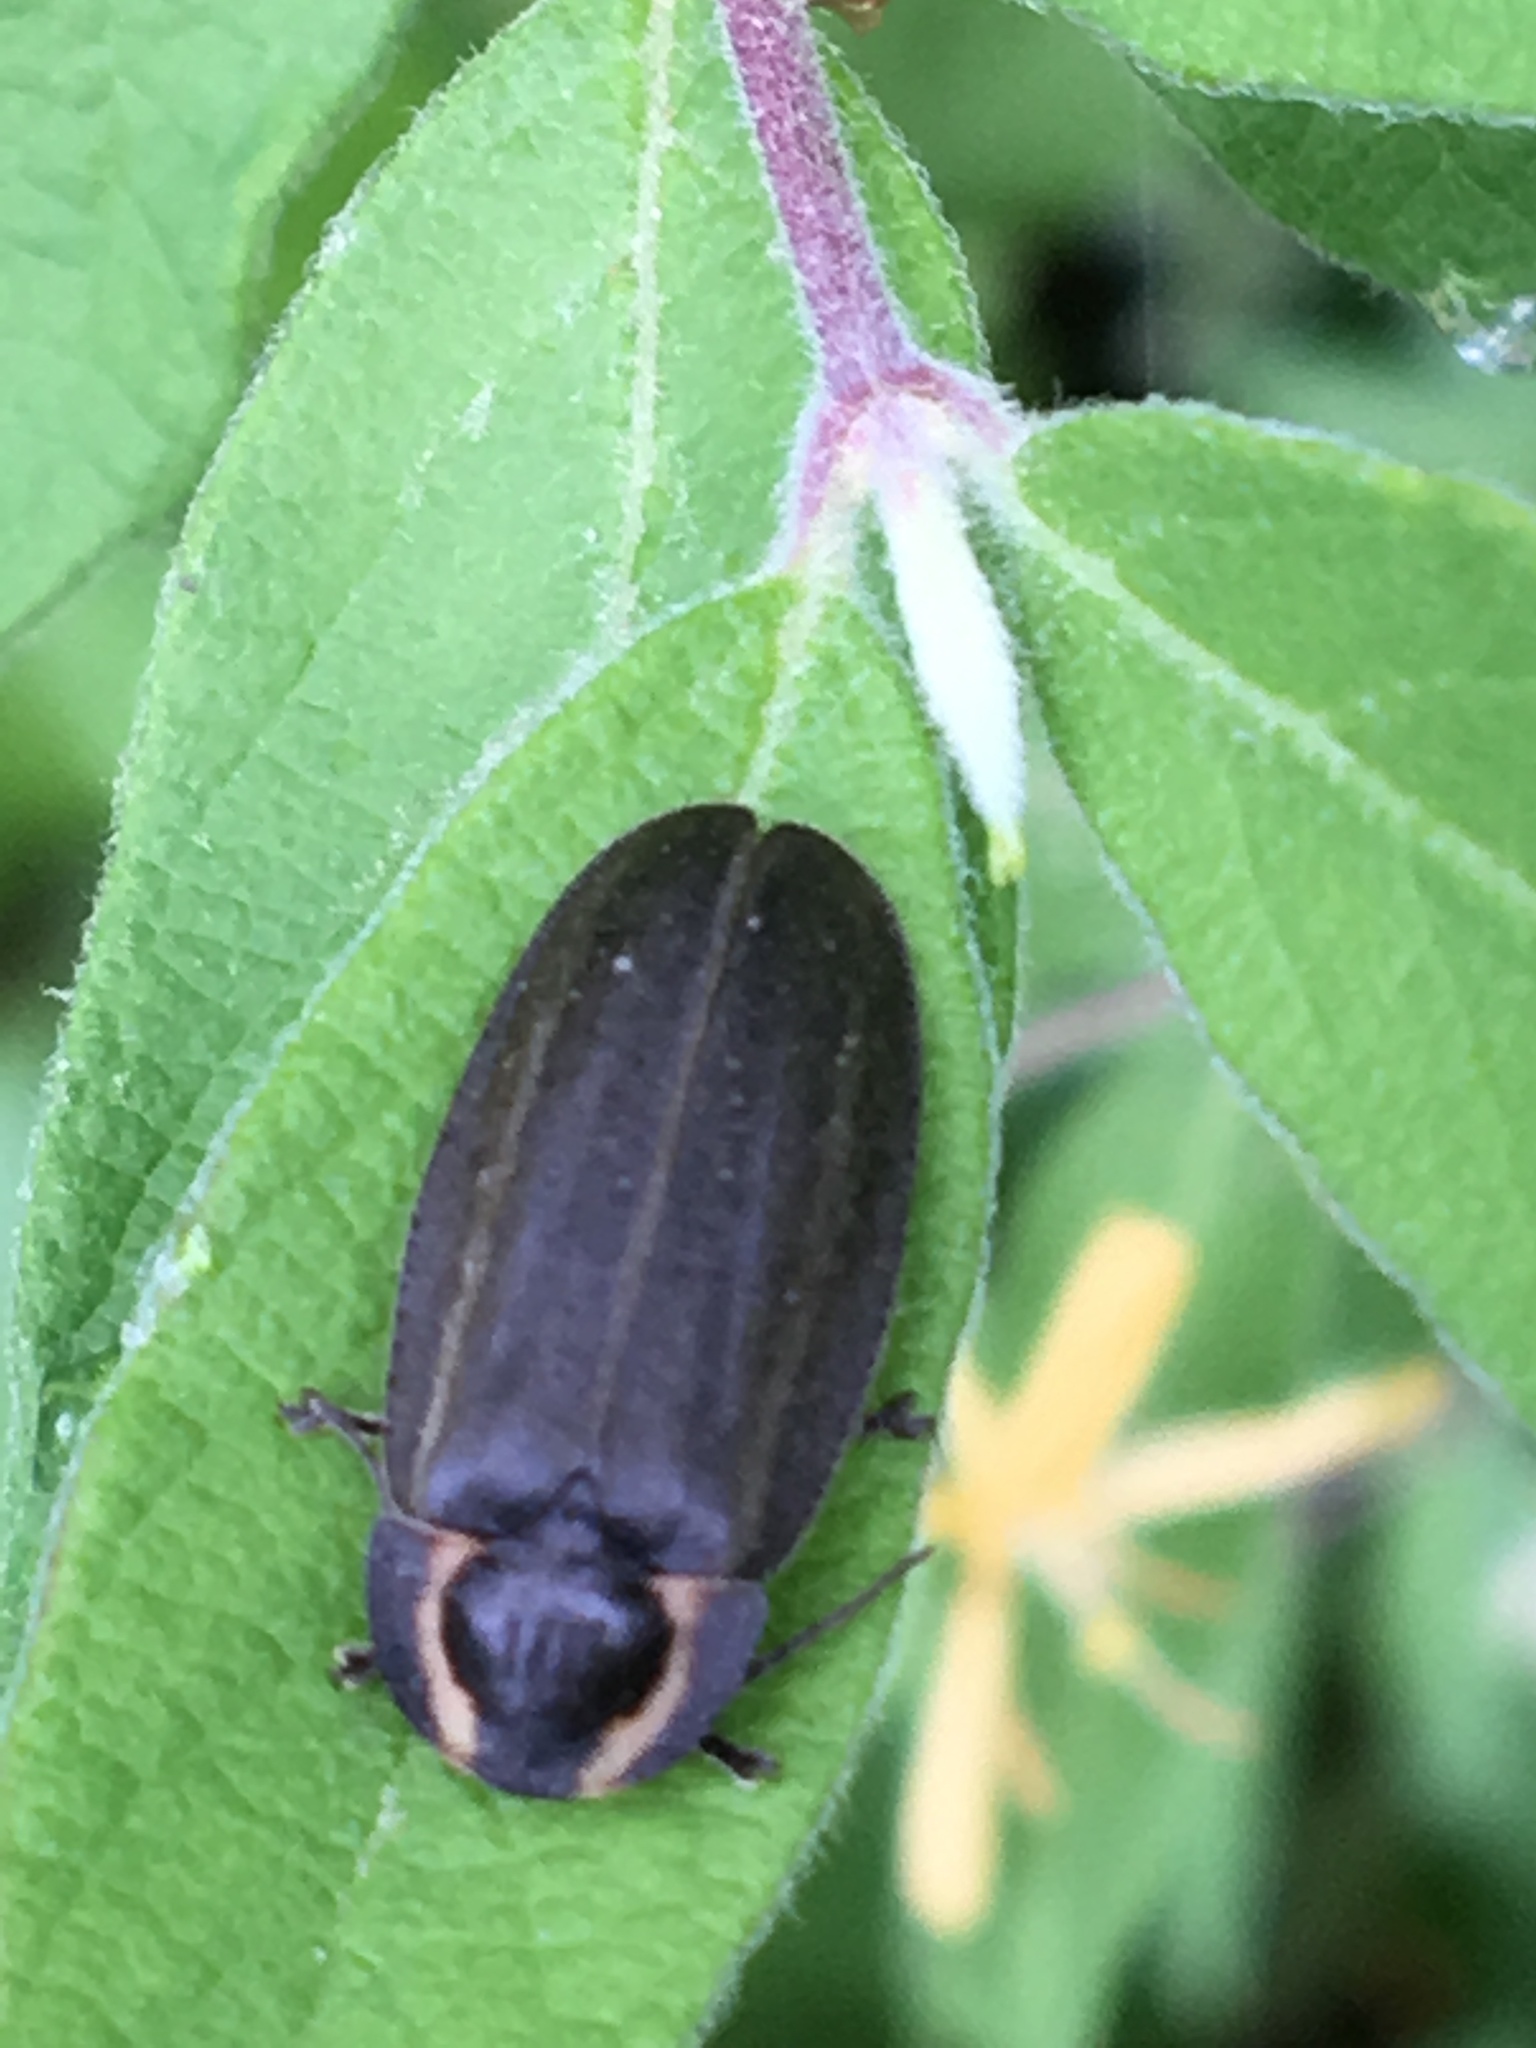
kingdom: Animalia
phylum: Arthropoda
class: Insecta
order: Coleoptera
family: Lampyridae
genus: Photinus
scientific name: Photinus corrusca
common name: Winter firefly
